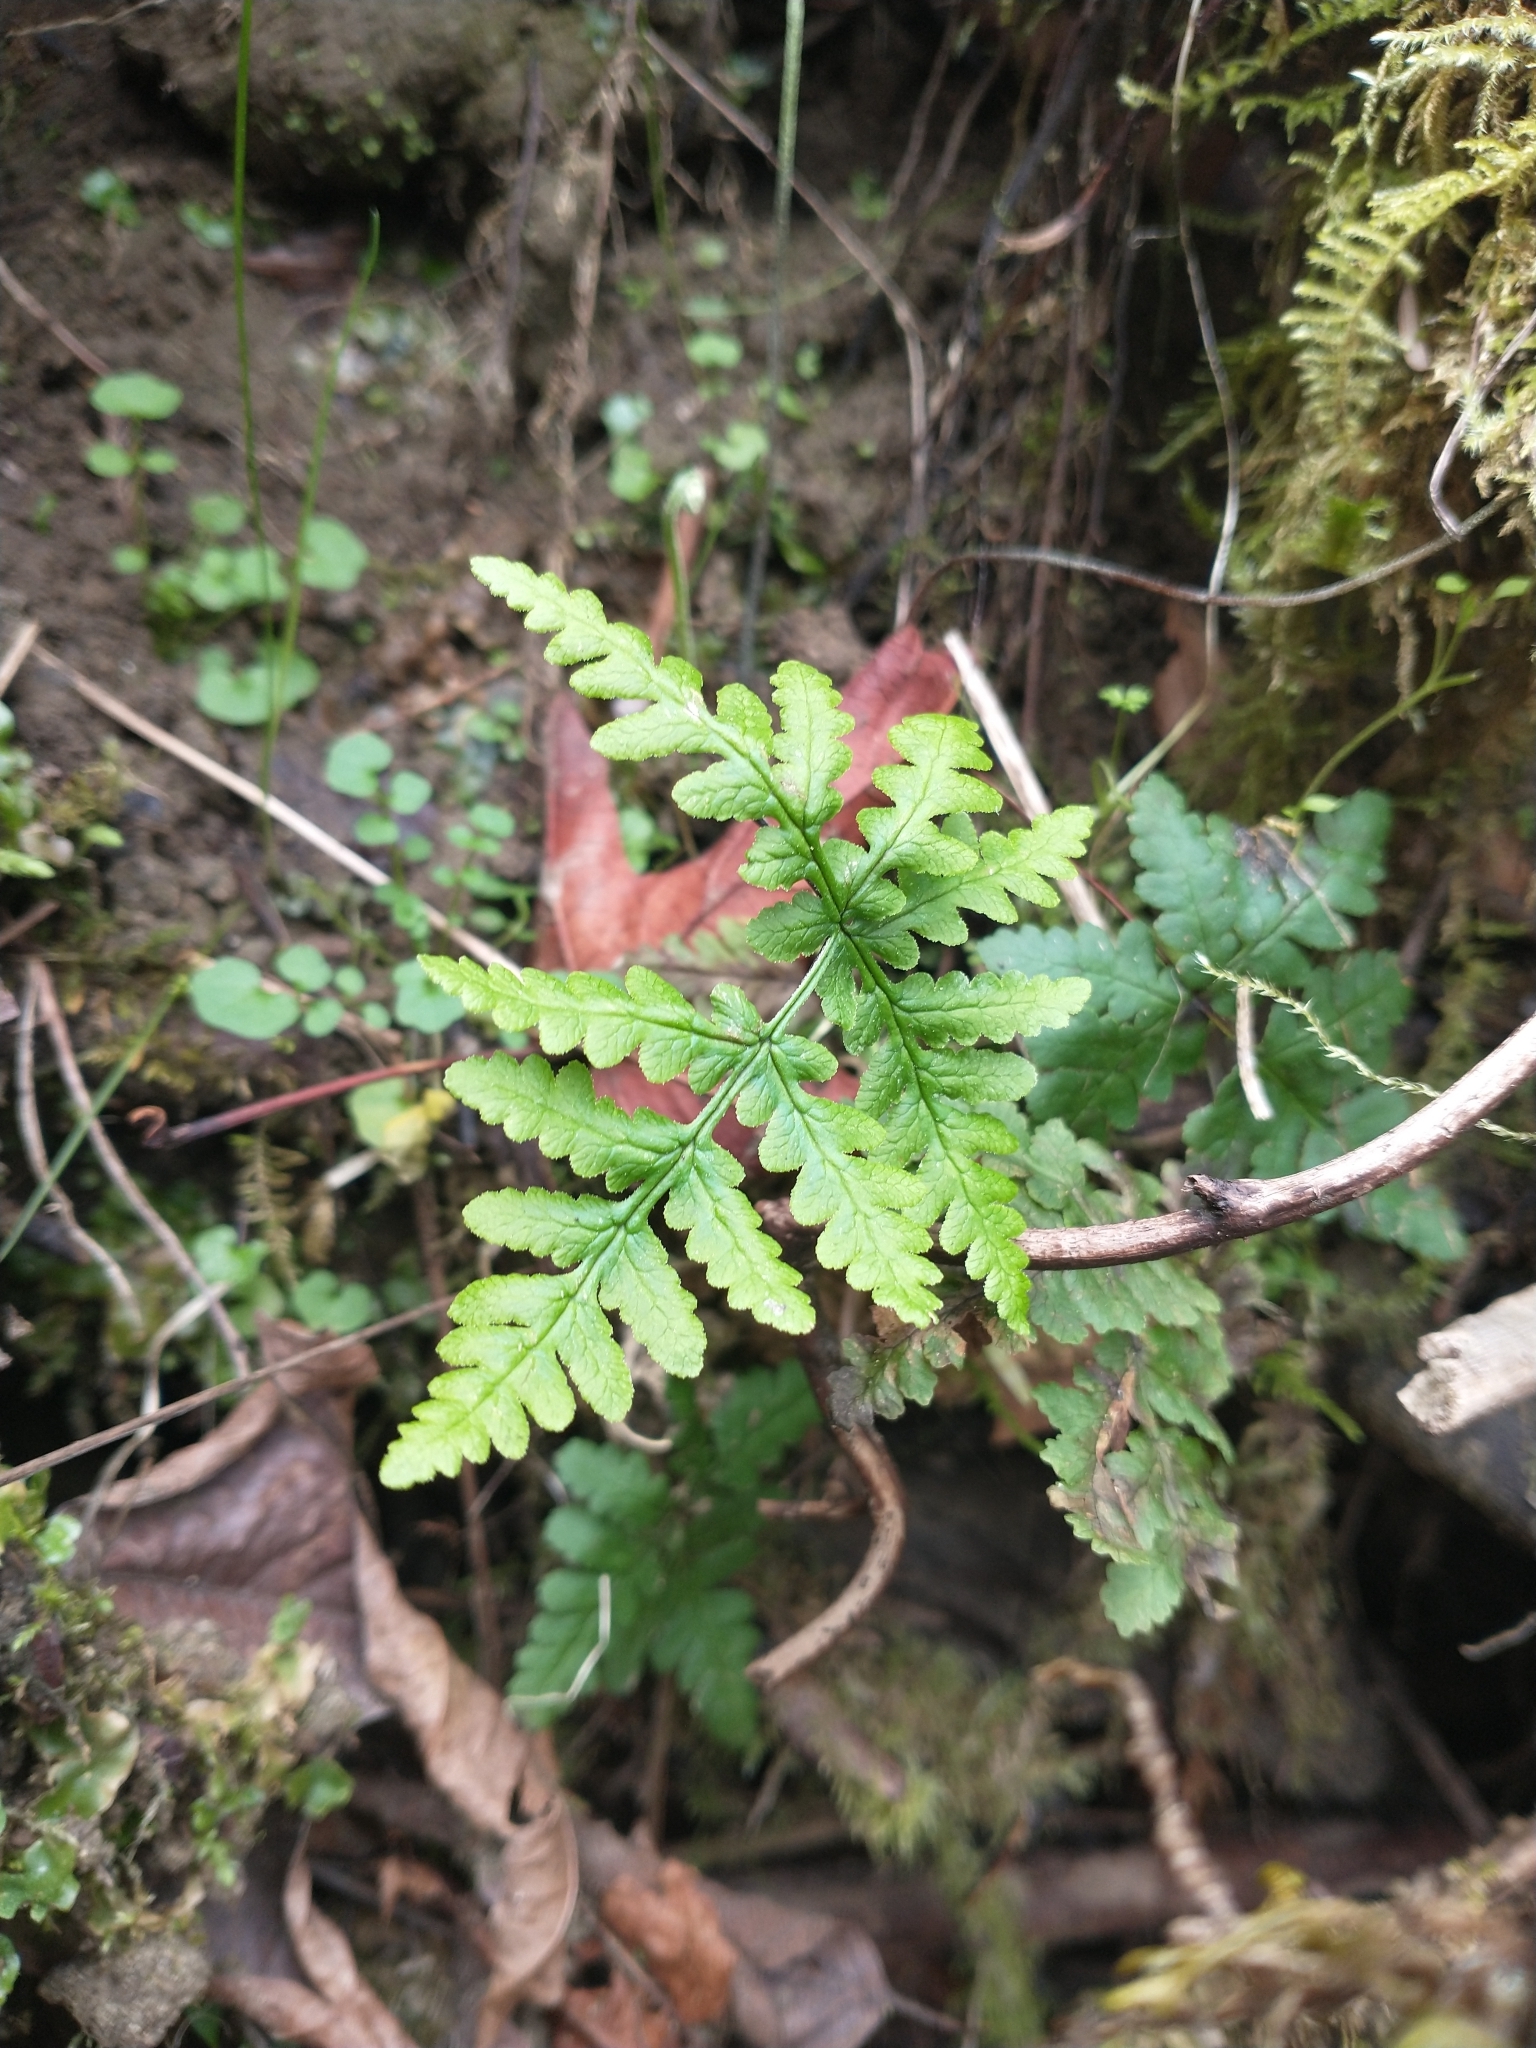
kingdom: Plantae
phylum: Tracheophyta
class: Polypodiopsida
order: Polypodiales
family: Pteridaceae
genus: Pentagramma
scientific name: Pentagramma triangularis
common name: Gold fern
